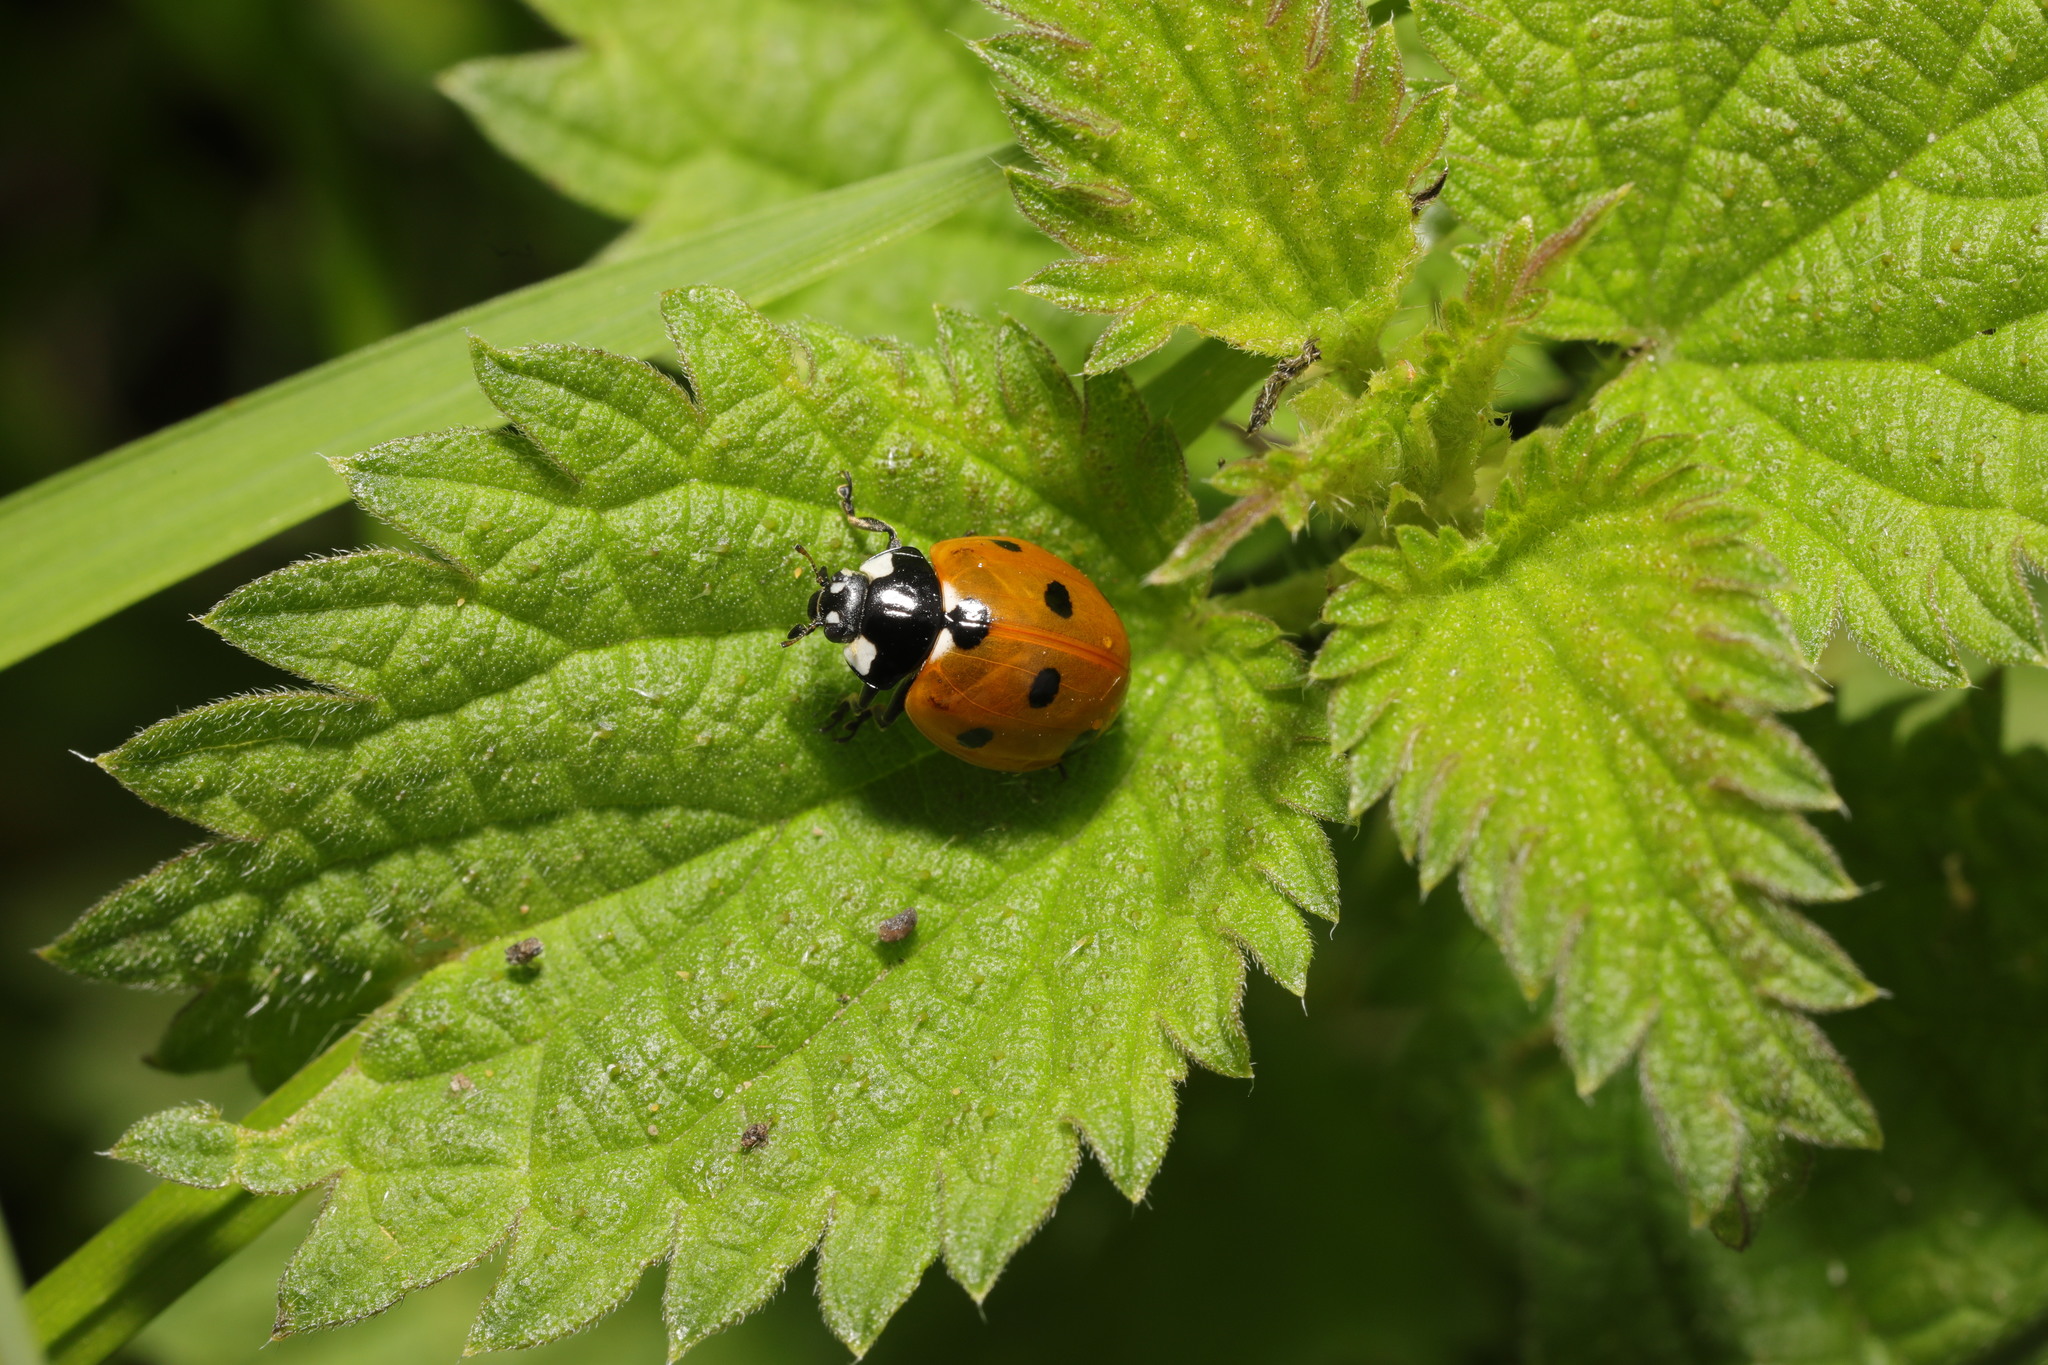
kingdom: Animalia
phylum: Arthropoda
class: Insecta
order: Coleoptera
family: Coccinellidae
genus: Coccinella
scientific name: Coccinella septempunctata
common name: Sevenspotted lady beetle
